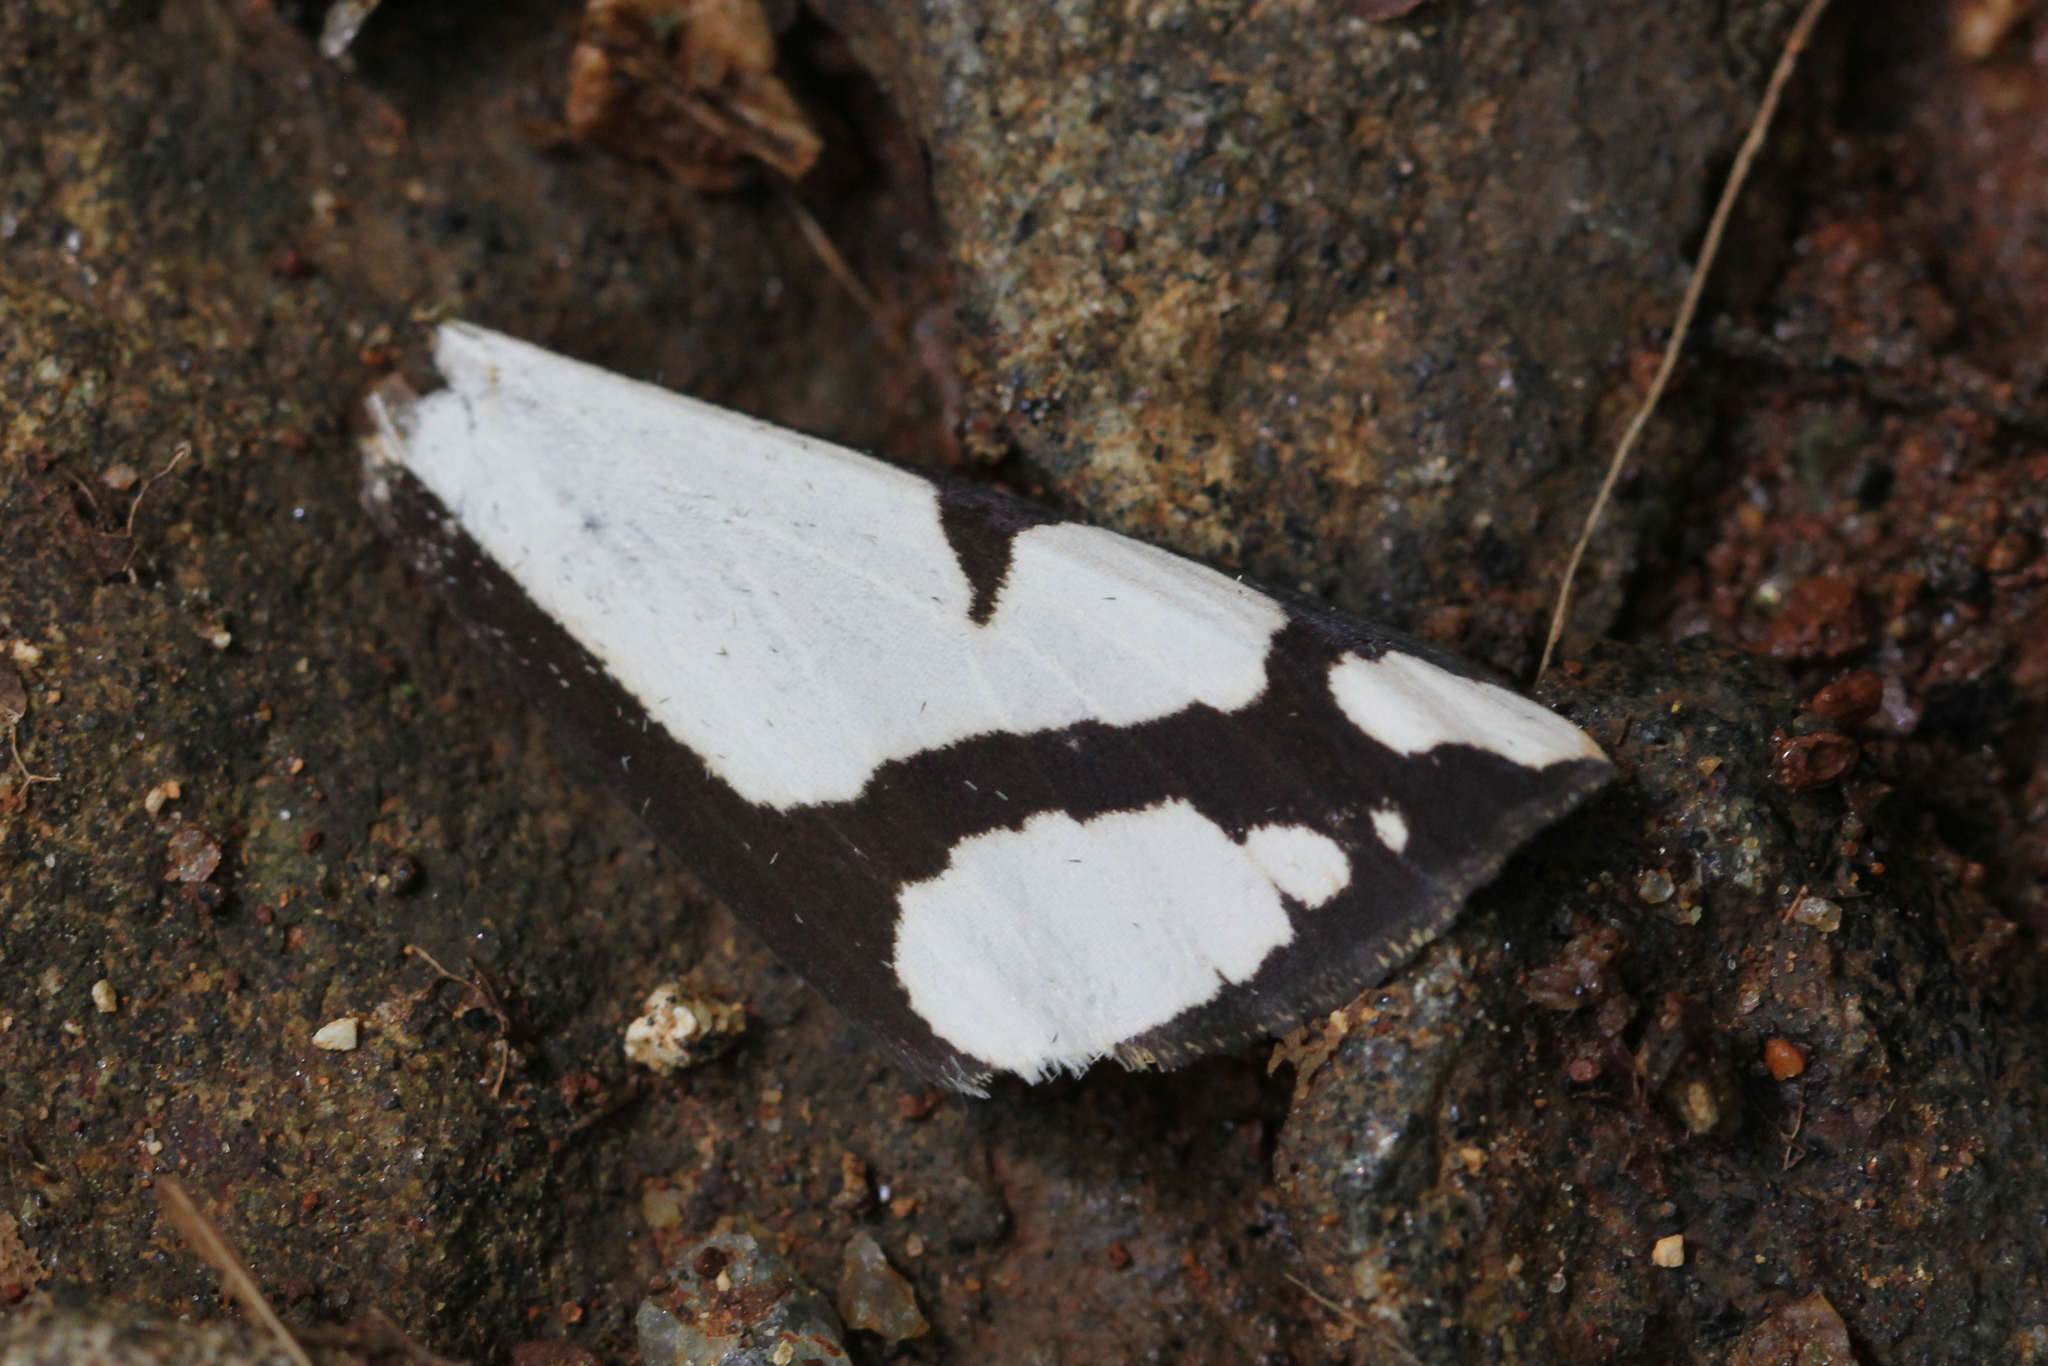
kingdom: Animalia
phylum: Arthropoda
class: Insecta
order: Lepidoptera
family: Erebidae
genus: Haploa
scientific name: Haploa lecontei
